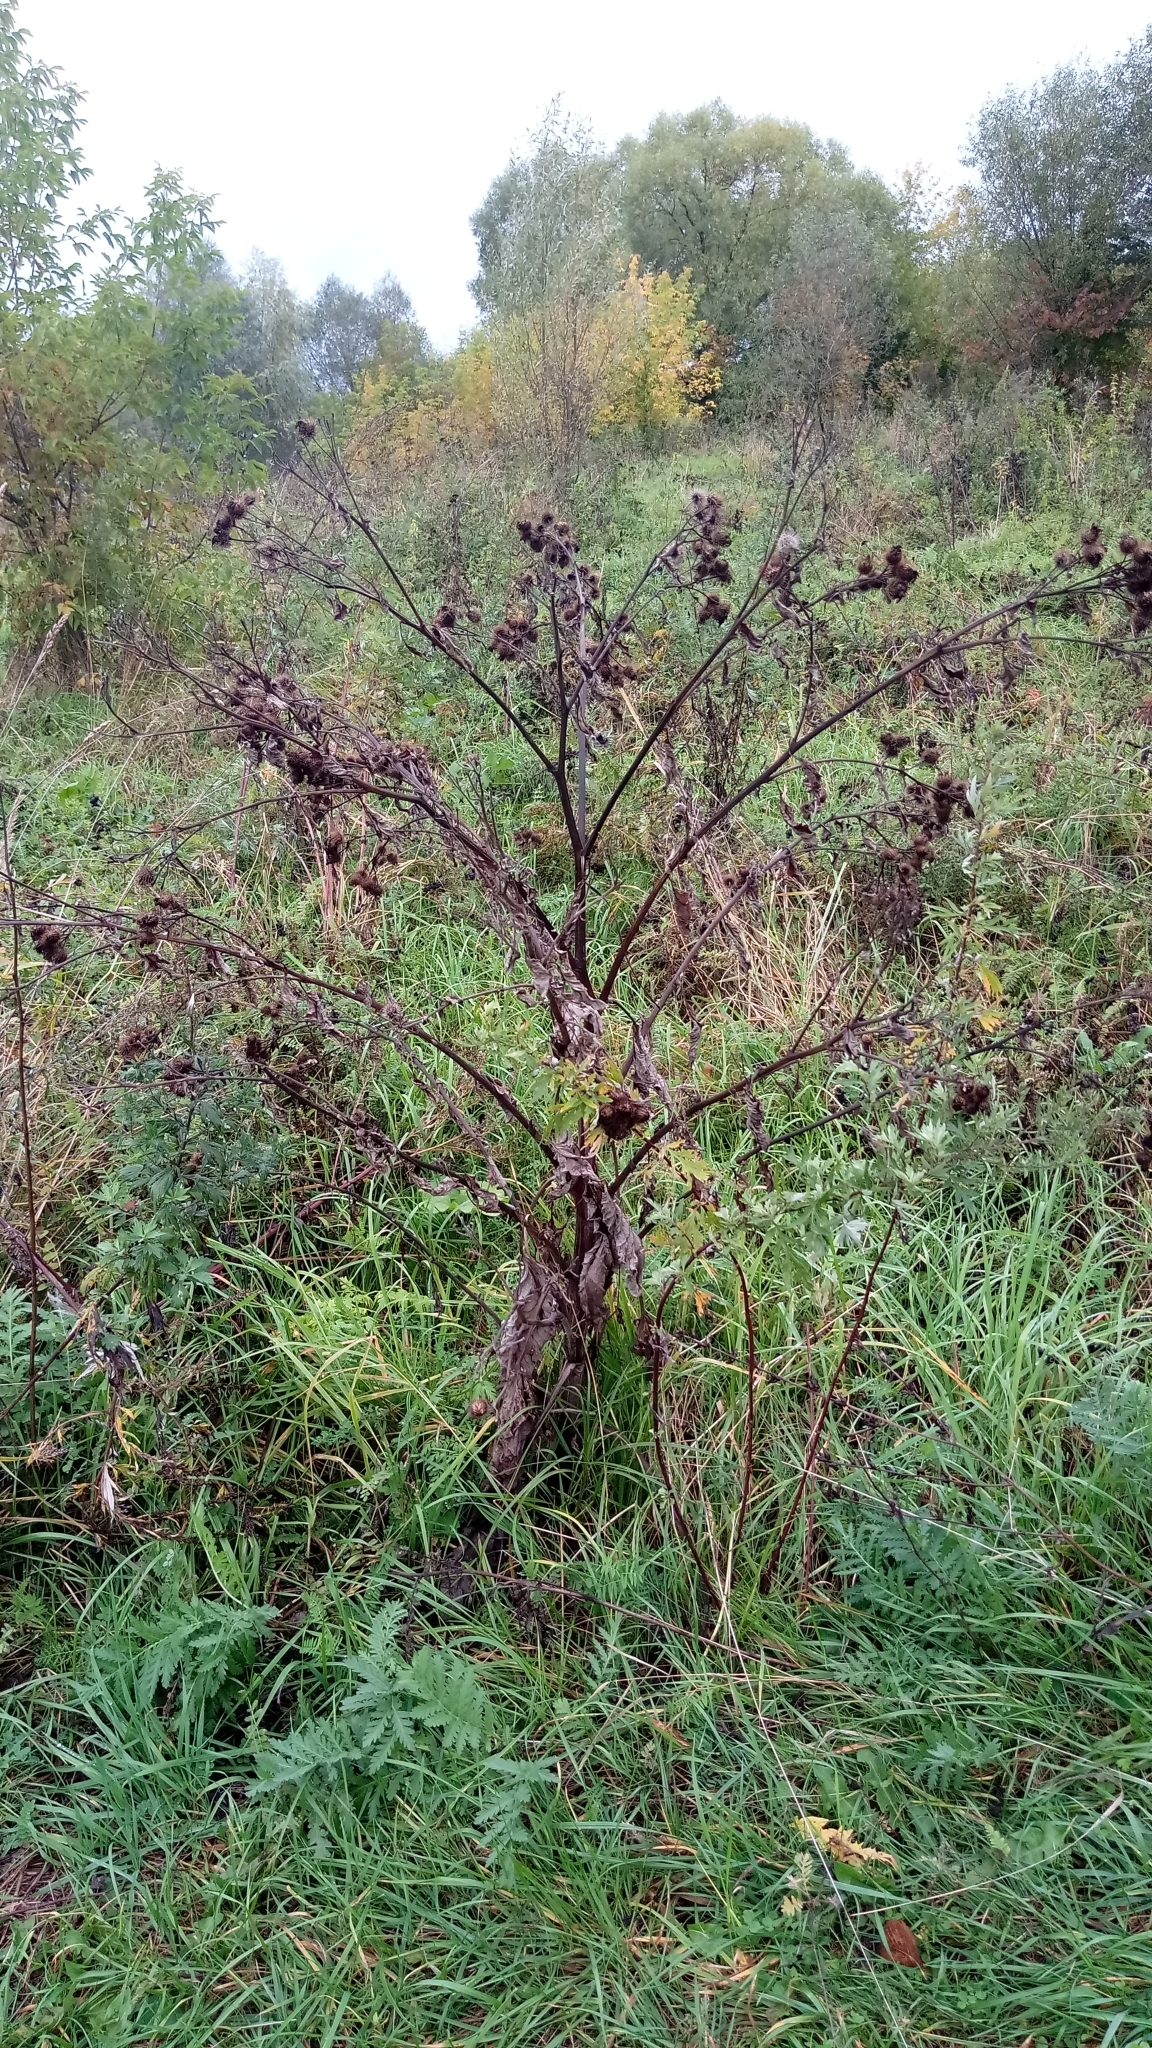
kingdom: Plantae
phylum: Tracheophyta
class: Magnoliopsida
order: Asterales
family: Asteraceae
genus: Arctium
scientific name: Arctium tomentosum
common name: Woolly burdock
